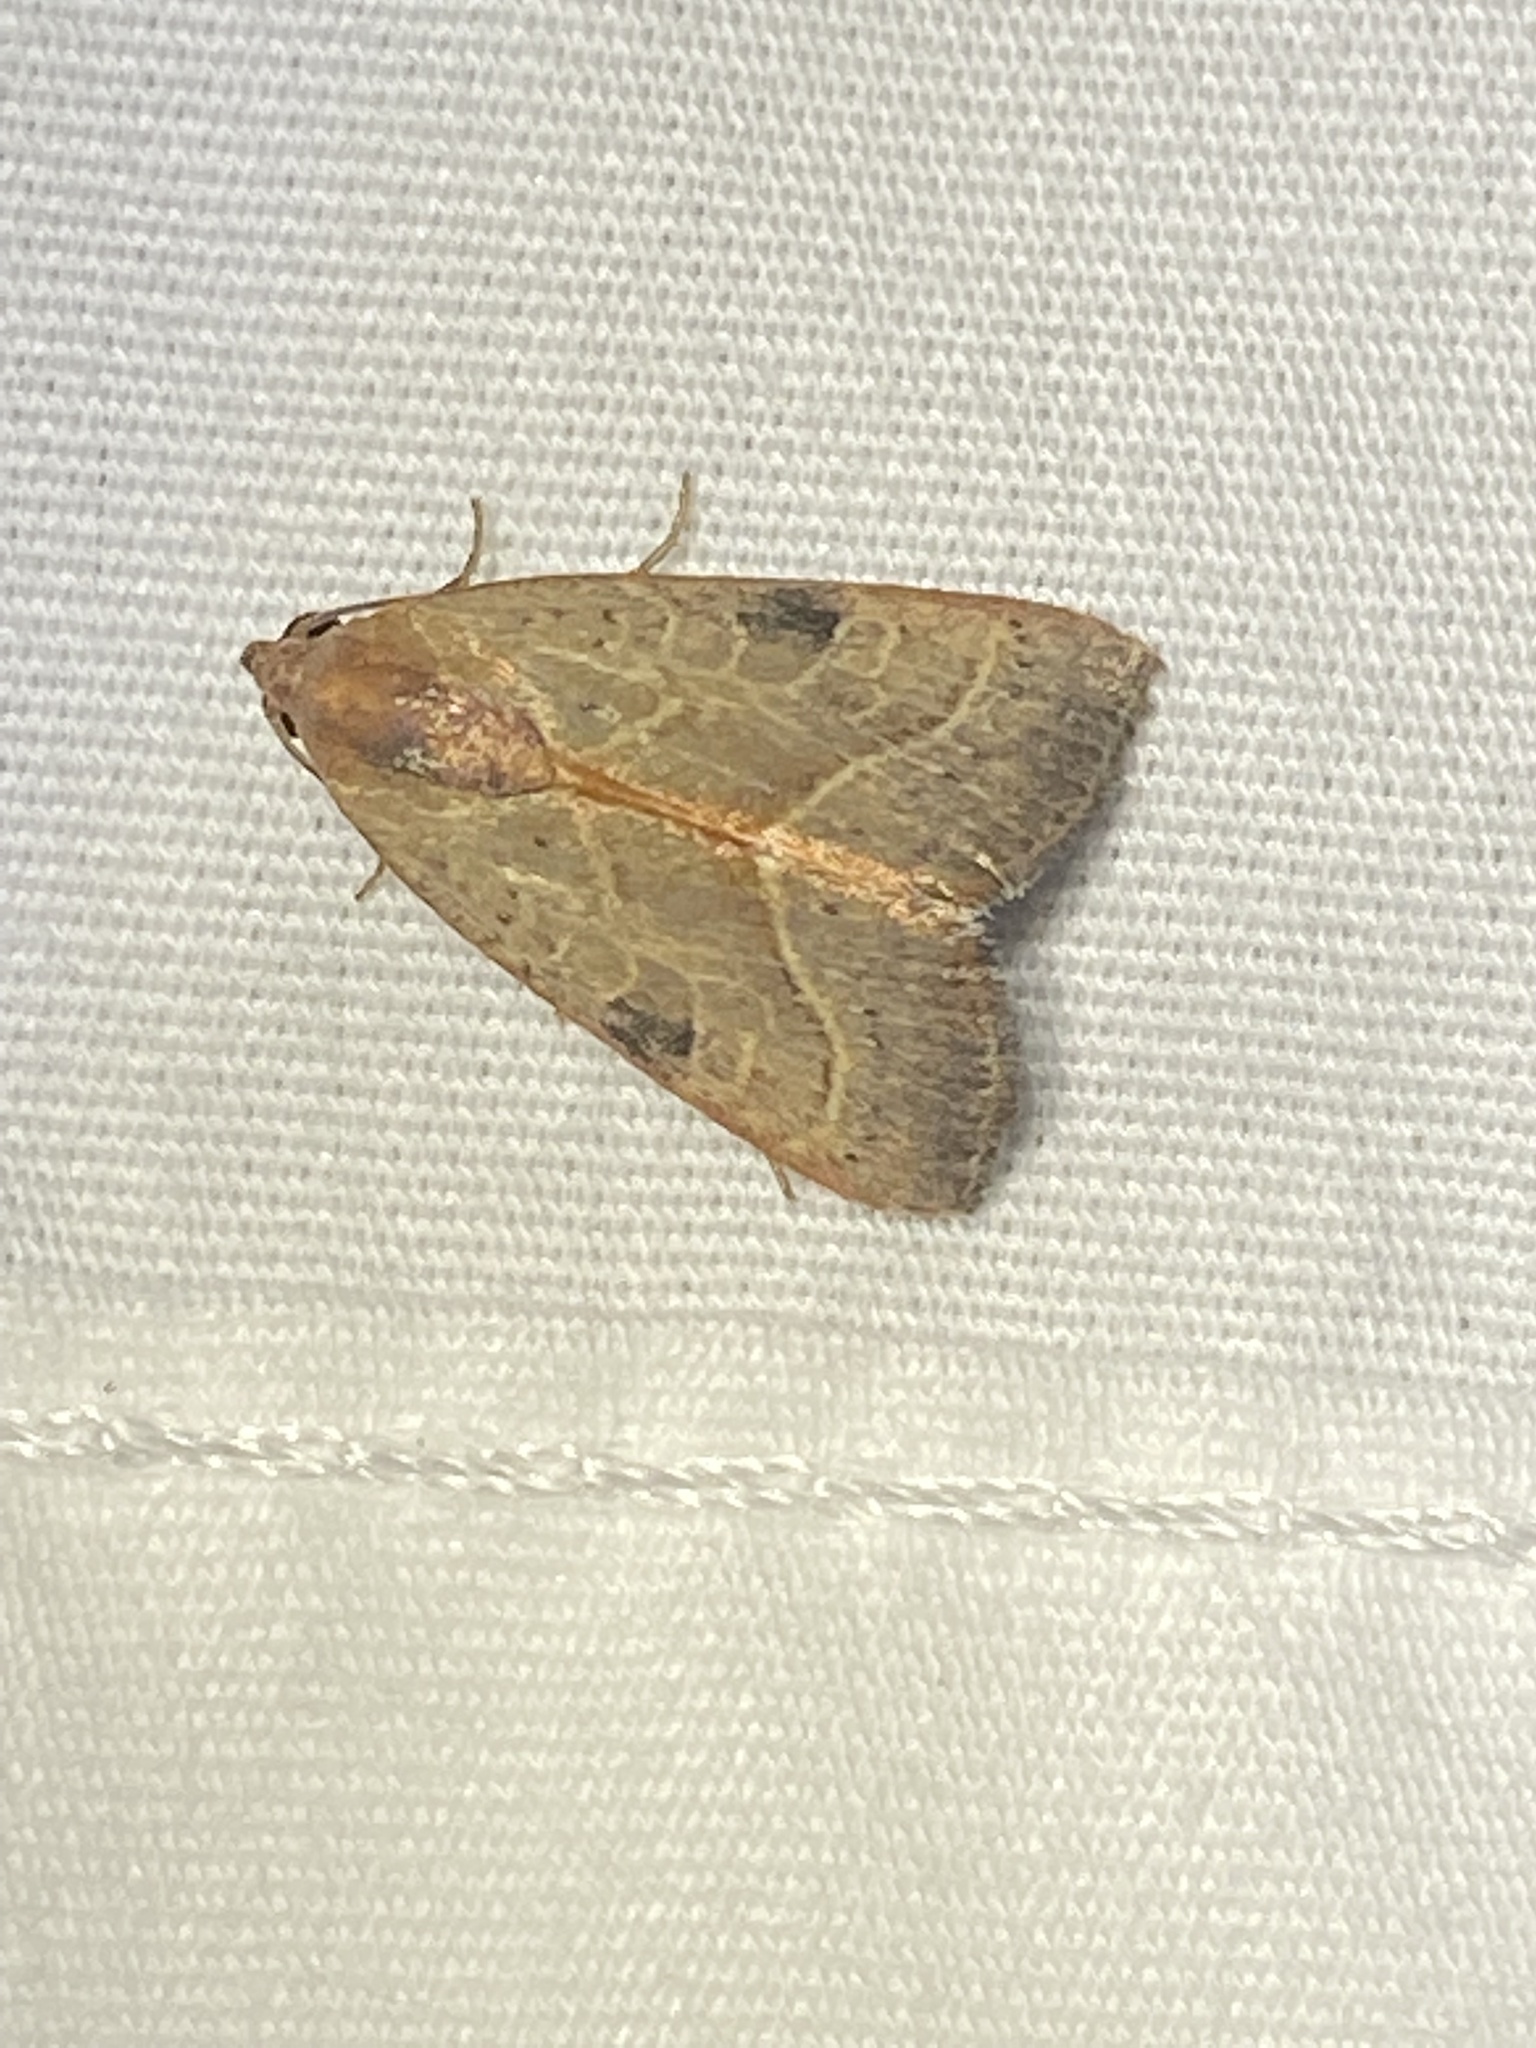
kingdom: Animalia
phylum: Arthropoda
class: Insecta
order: Lepidoptera
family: Noctuidae
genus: Galgula
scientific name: Galgula partita
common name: Wedgeling
